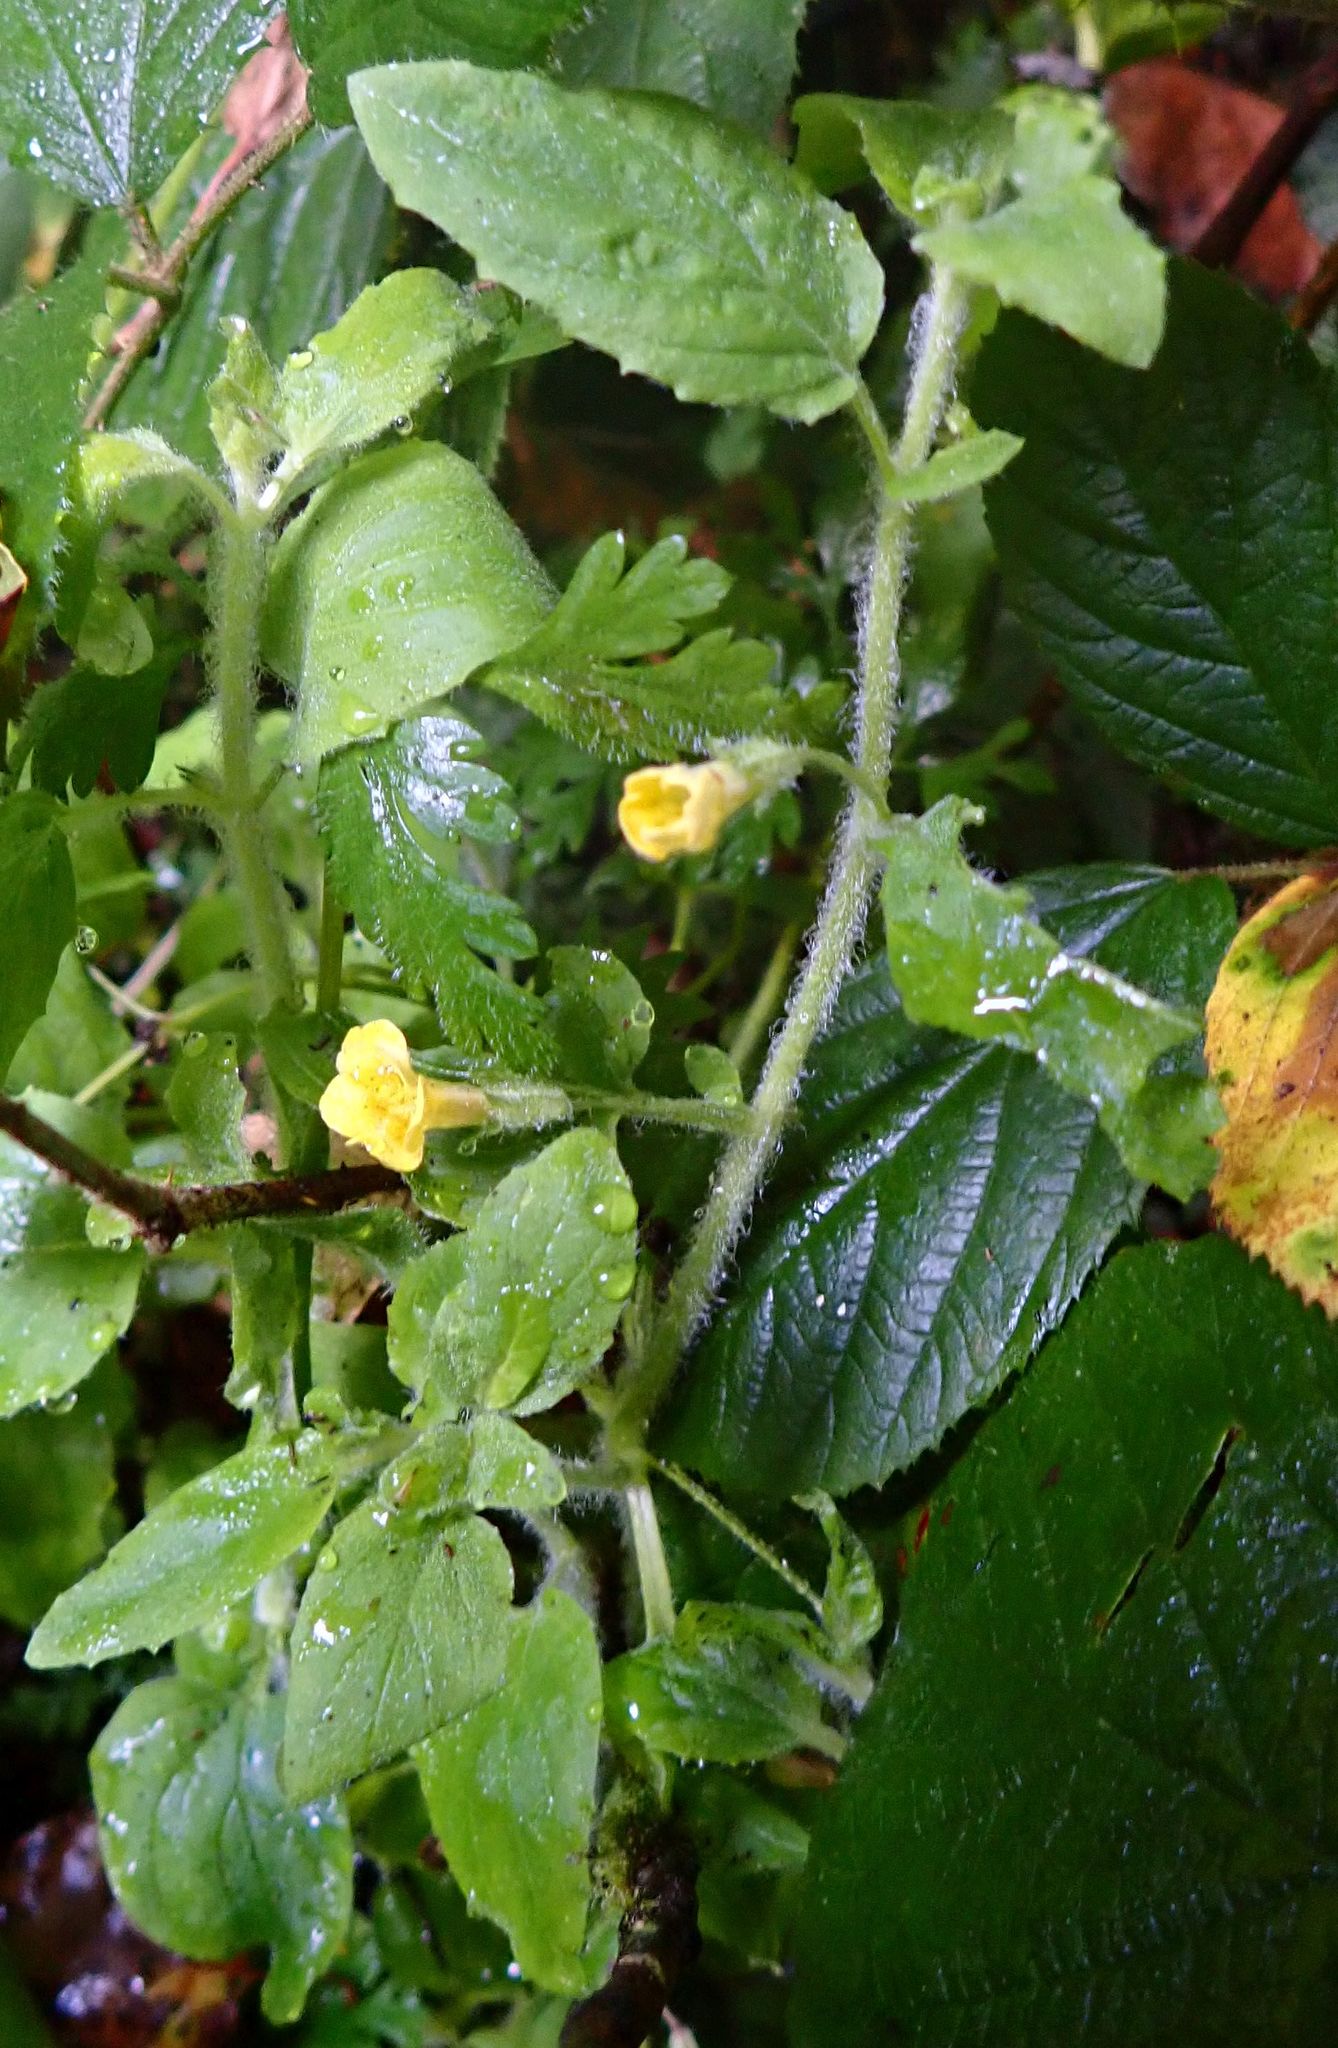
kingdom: Plantae
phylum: Tracheophyta
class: Magnoliopsida
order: Lamiales
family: Phrymaceae
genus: Erythranthe
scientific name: Erythranthe moschata
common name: Muskflower
